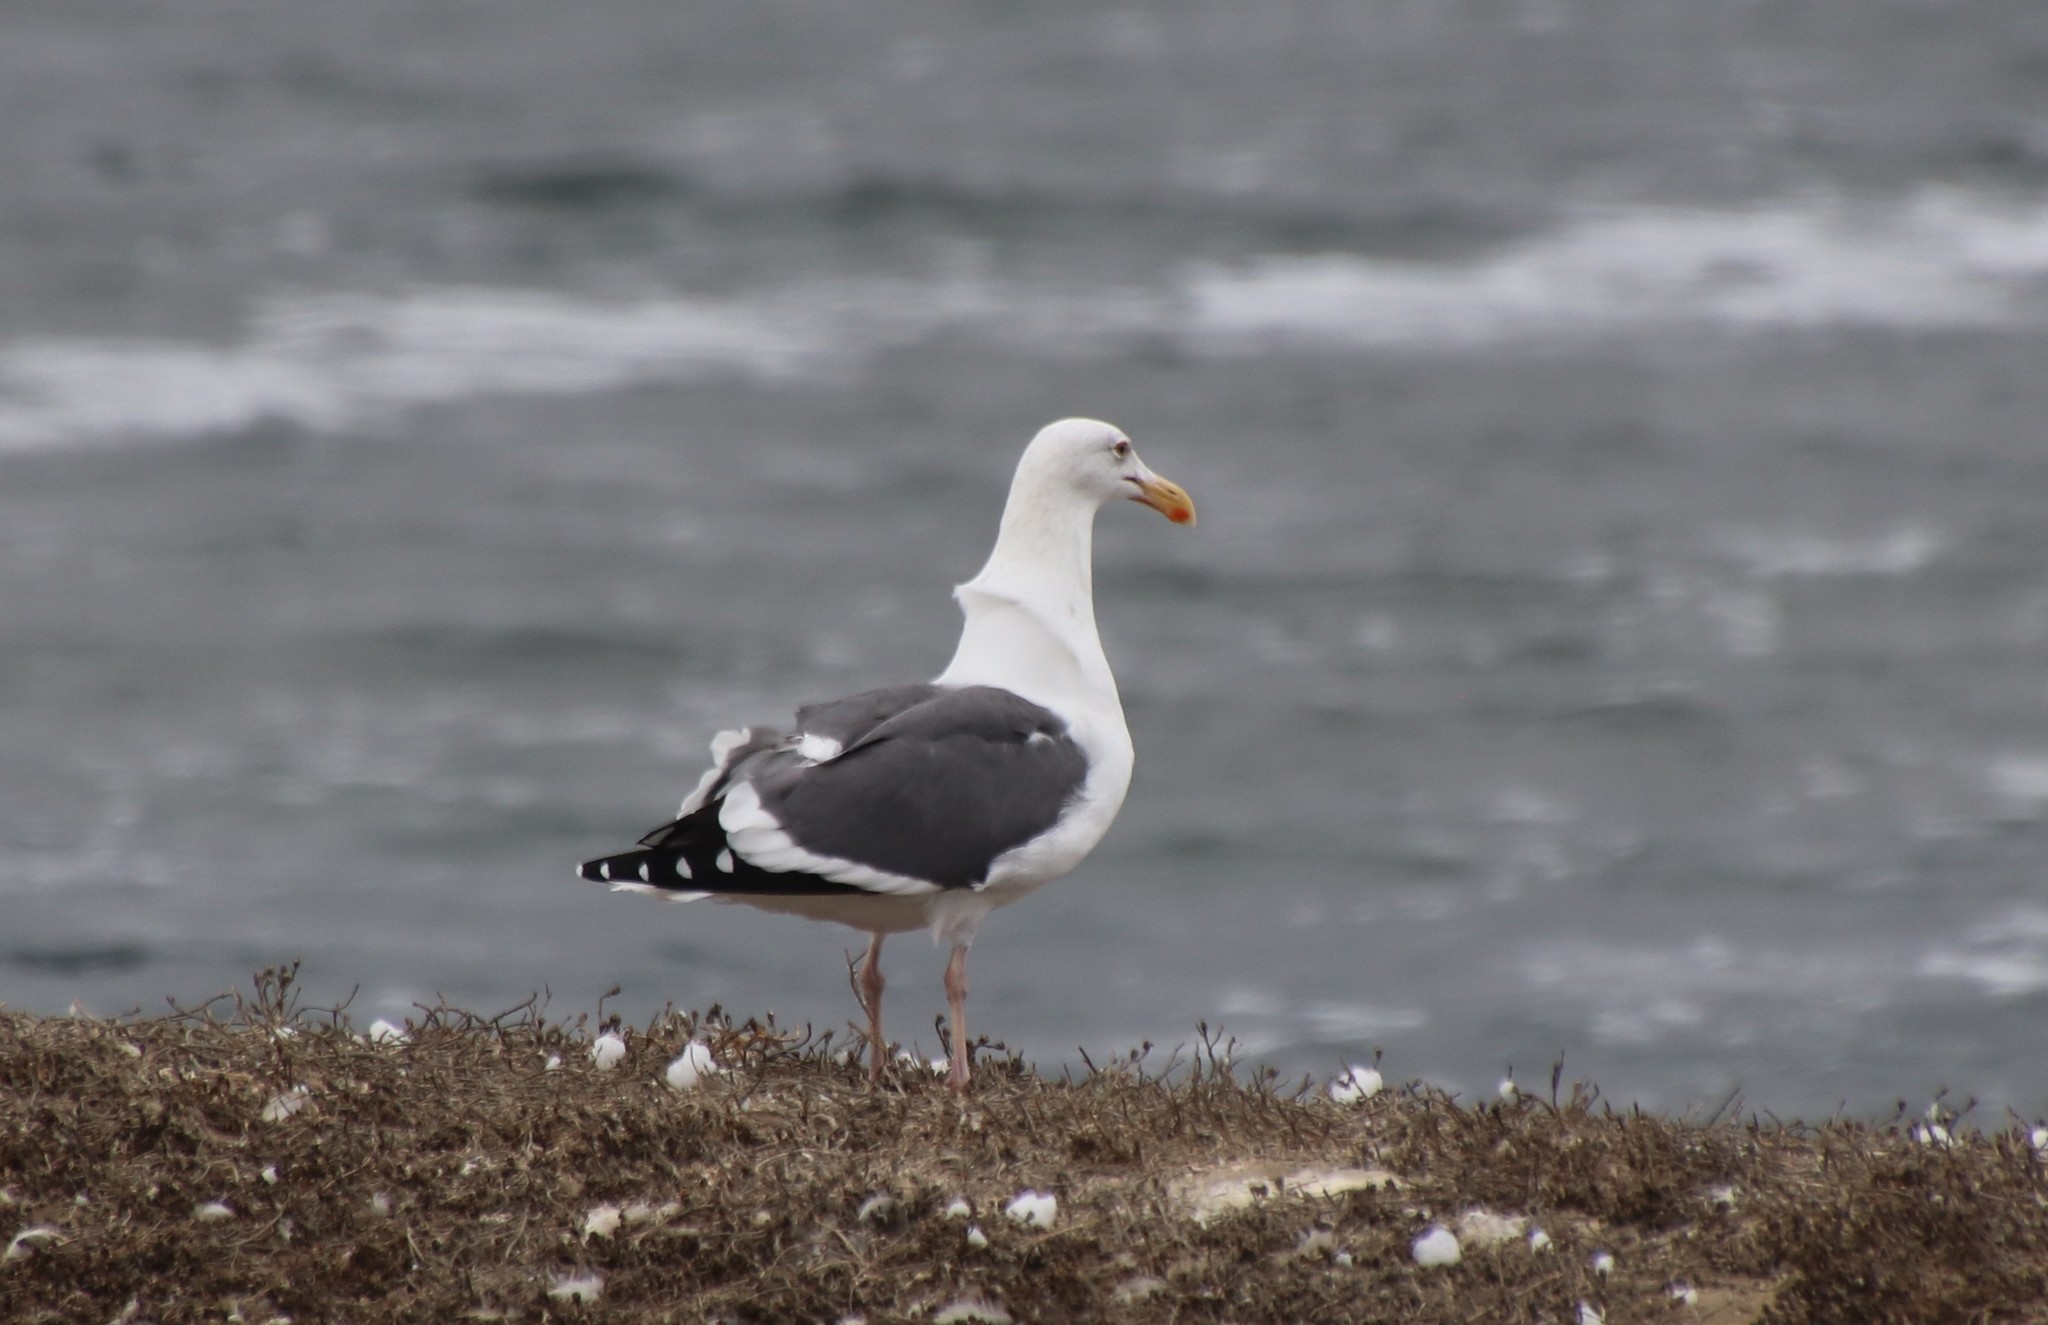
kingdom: Animalia
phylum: Chordata
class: Aves
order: Charadriiformes
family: Laridae
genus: Larus
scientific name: Larus occidentalis
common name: Western gull
